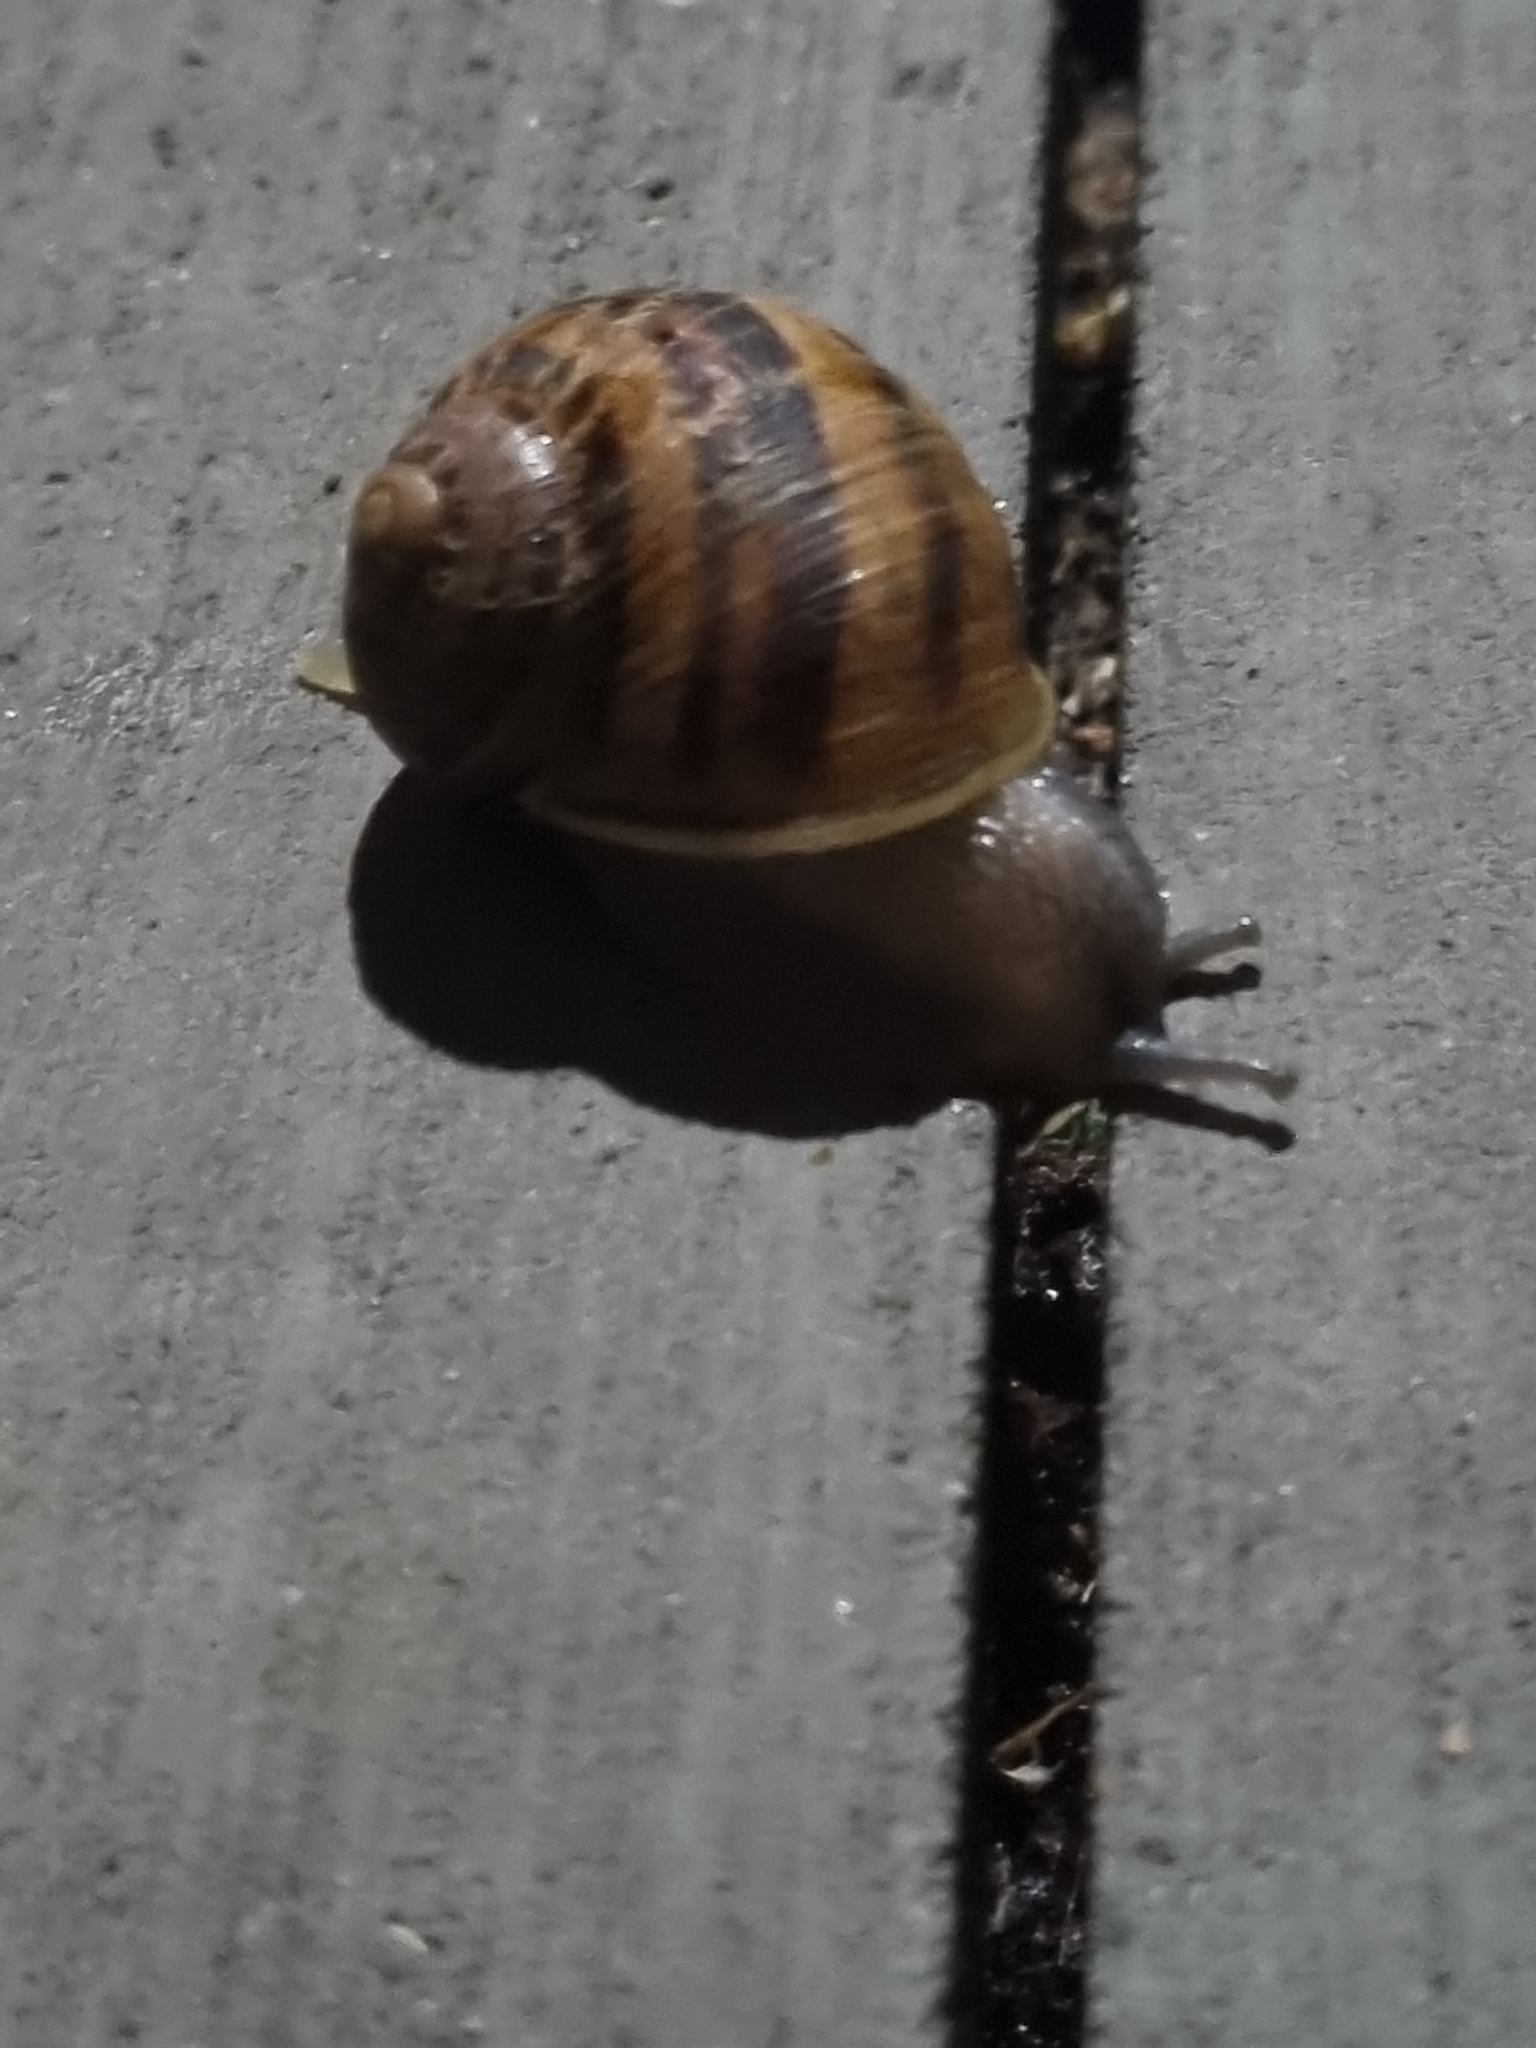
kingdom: Animalia
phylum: Mollusca
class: Gastropoda
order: Stylommatophora
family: Helicidae
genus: Cornu
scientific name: Cornu aspersum
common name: Brown garden snail
